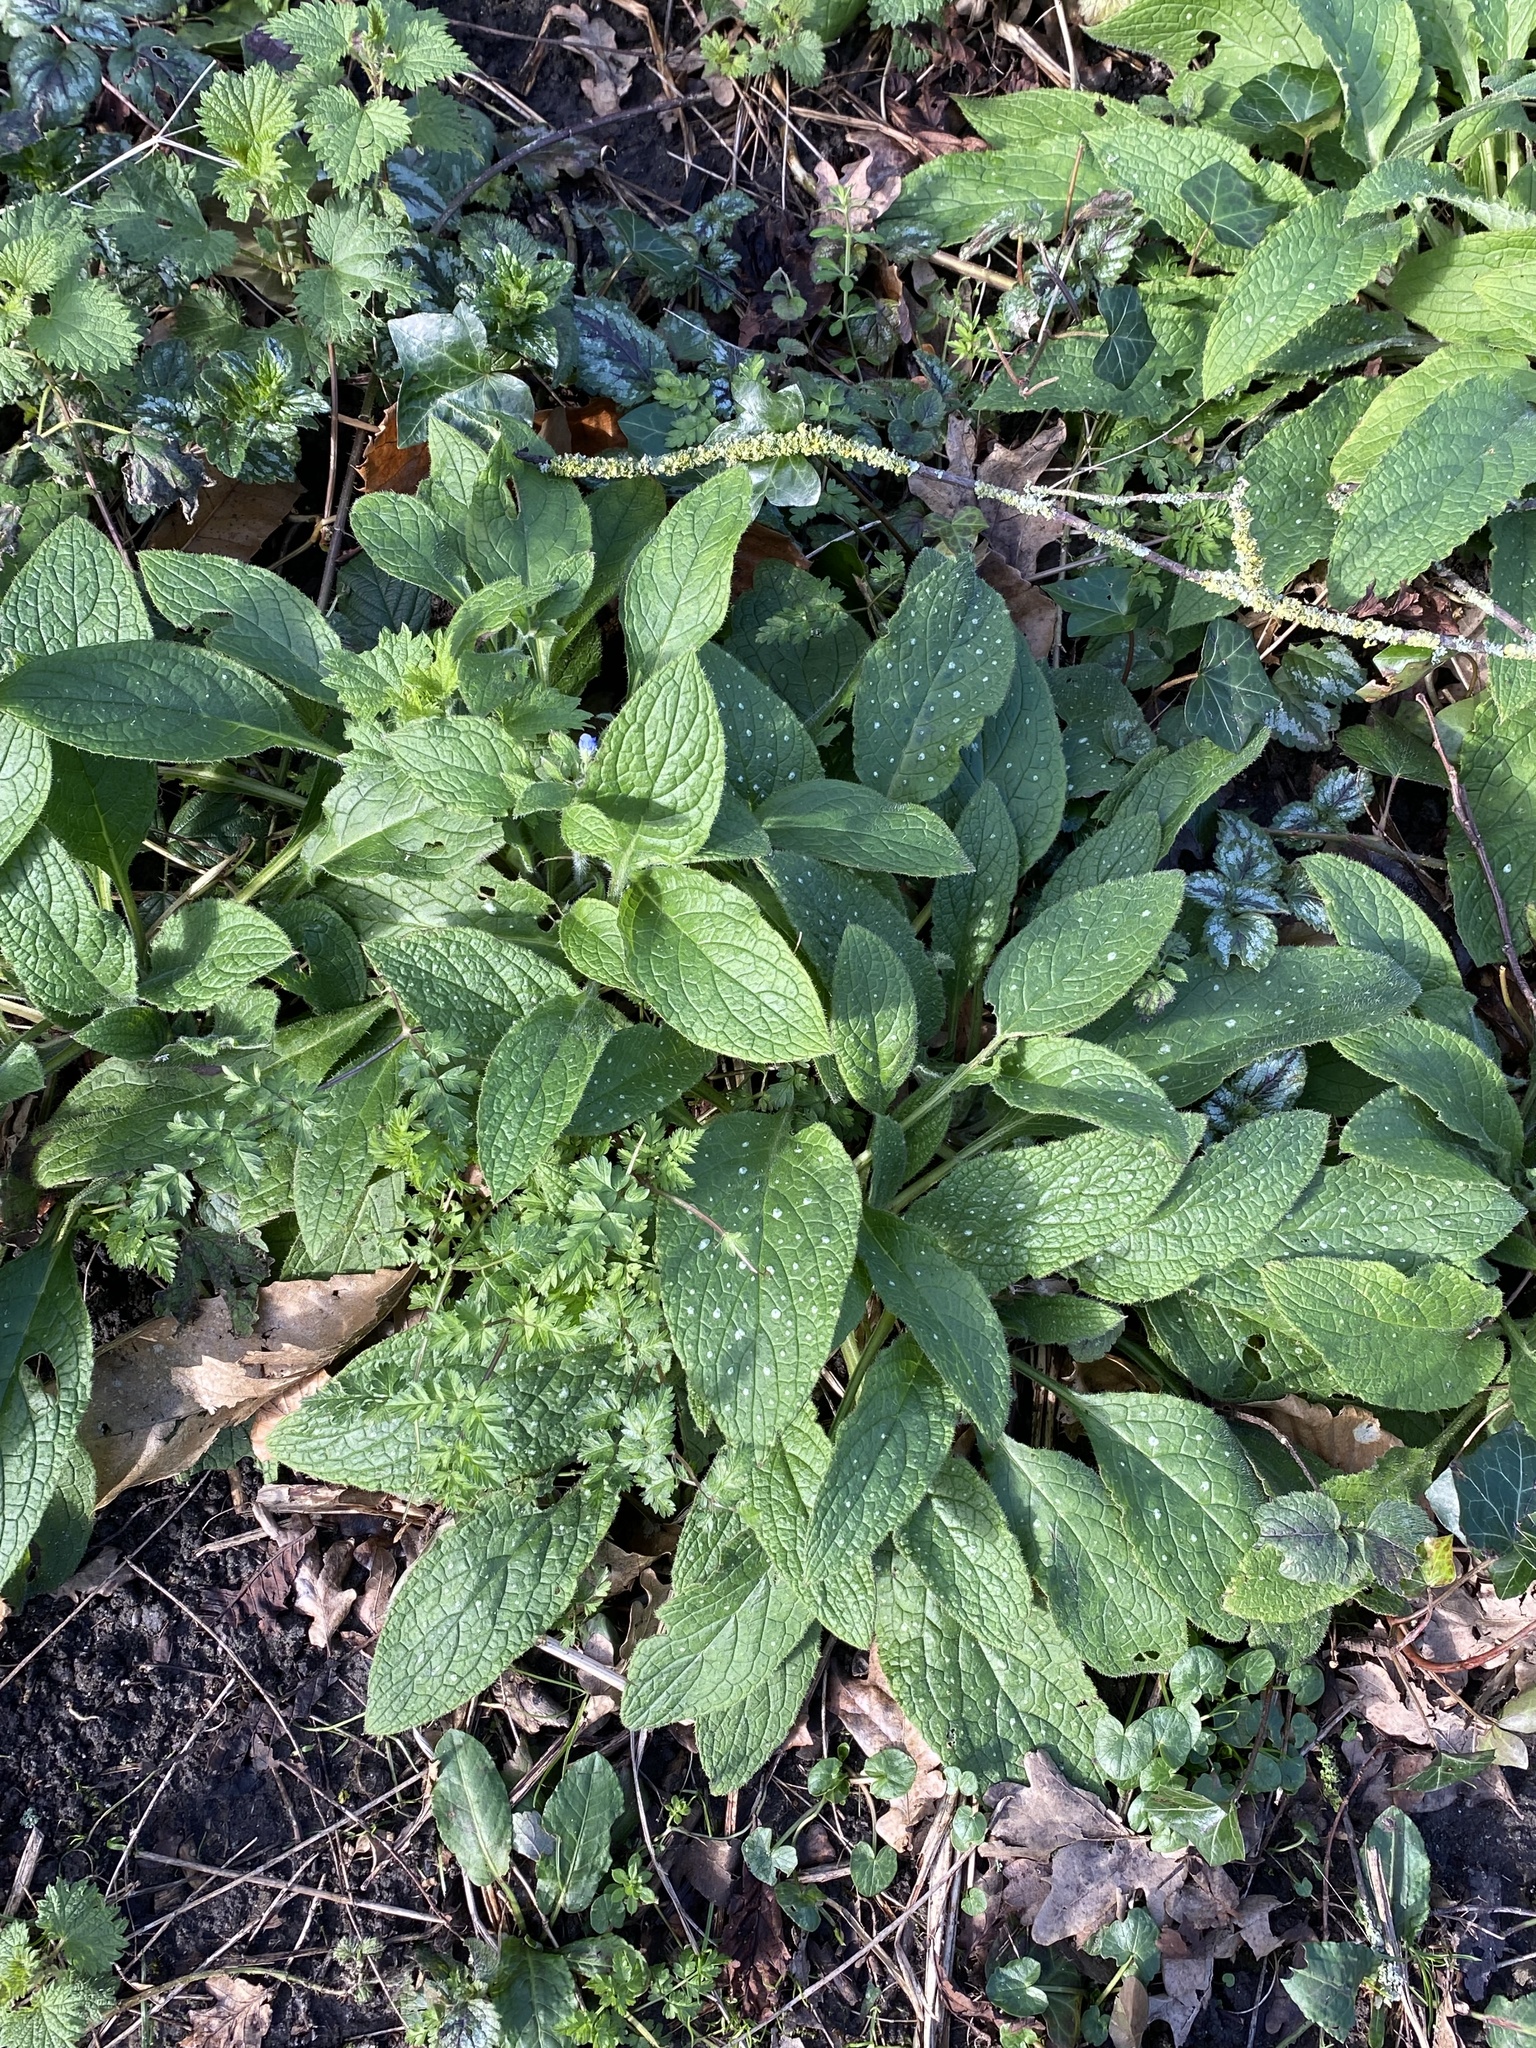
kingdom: Plantae
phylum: Tracheophyta
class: Magnoliopsida
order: Boraginales
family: Boraginaceae
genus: Pentaglottis
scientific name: Pentaglottis sempervirens
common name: Green alkanet
